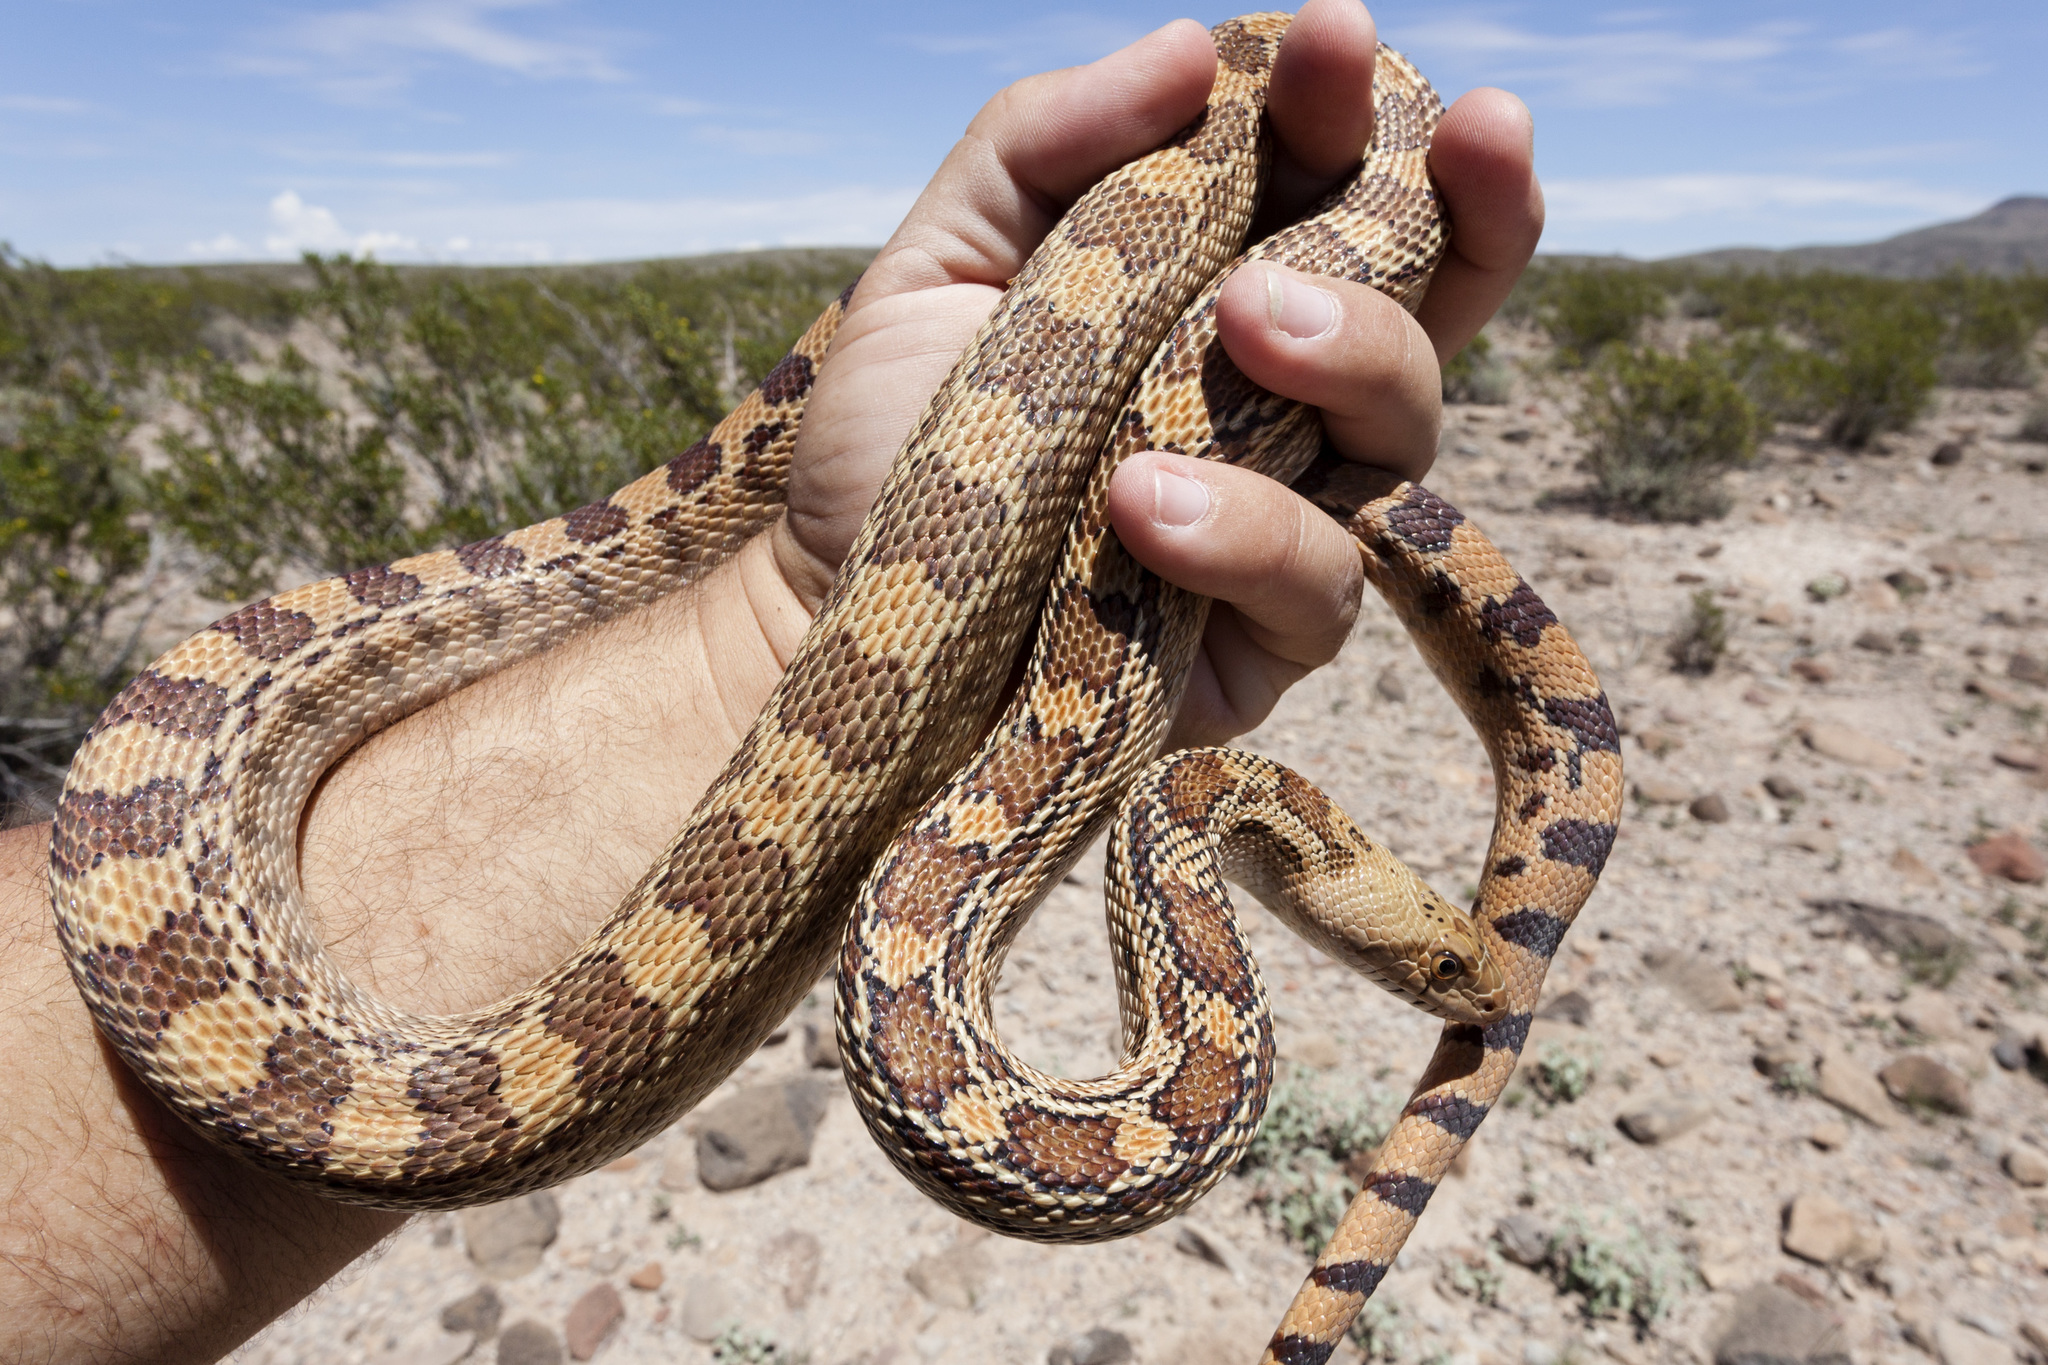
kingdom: Animalia
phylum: Chordata
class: Squamata
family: Colubridae
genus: Pituophis
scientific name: Pituophis catenifer
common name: Gopher snake
